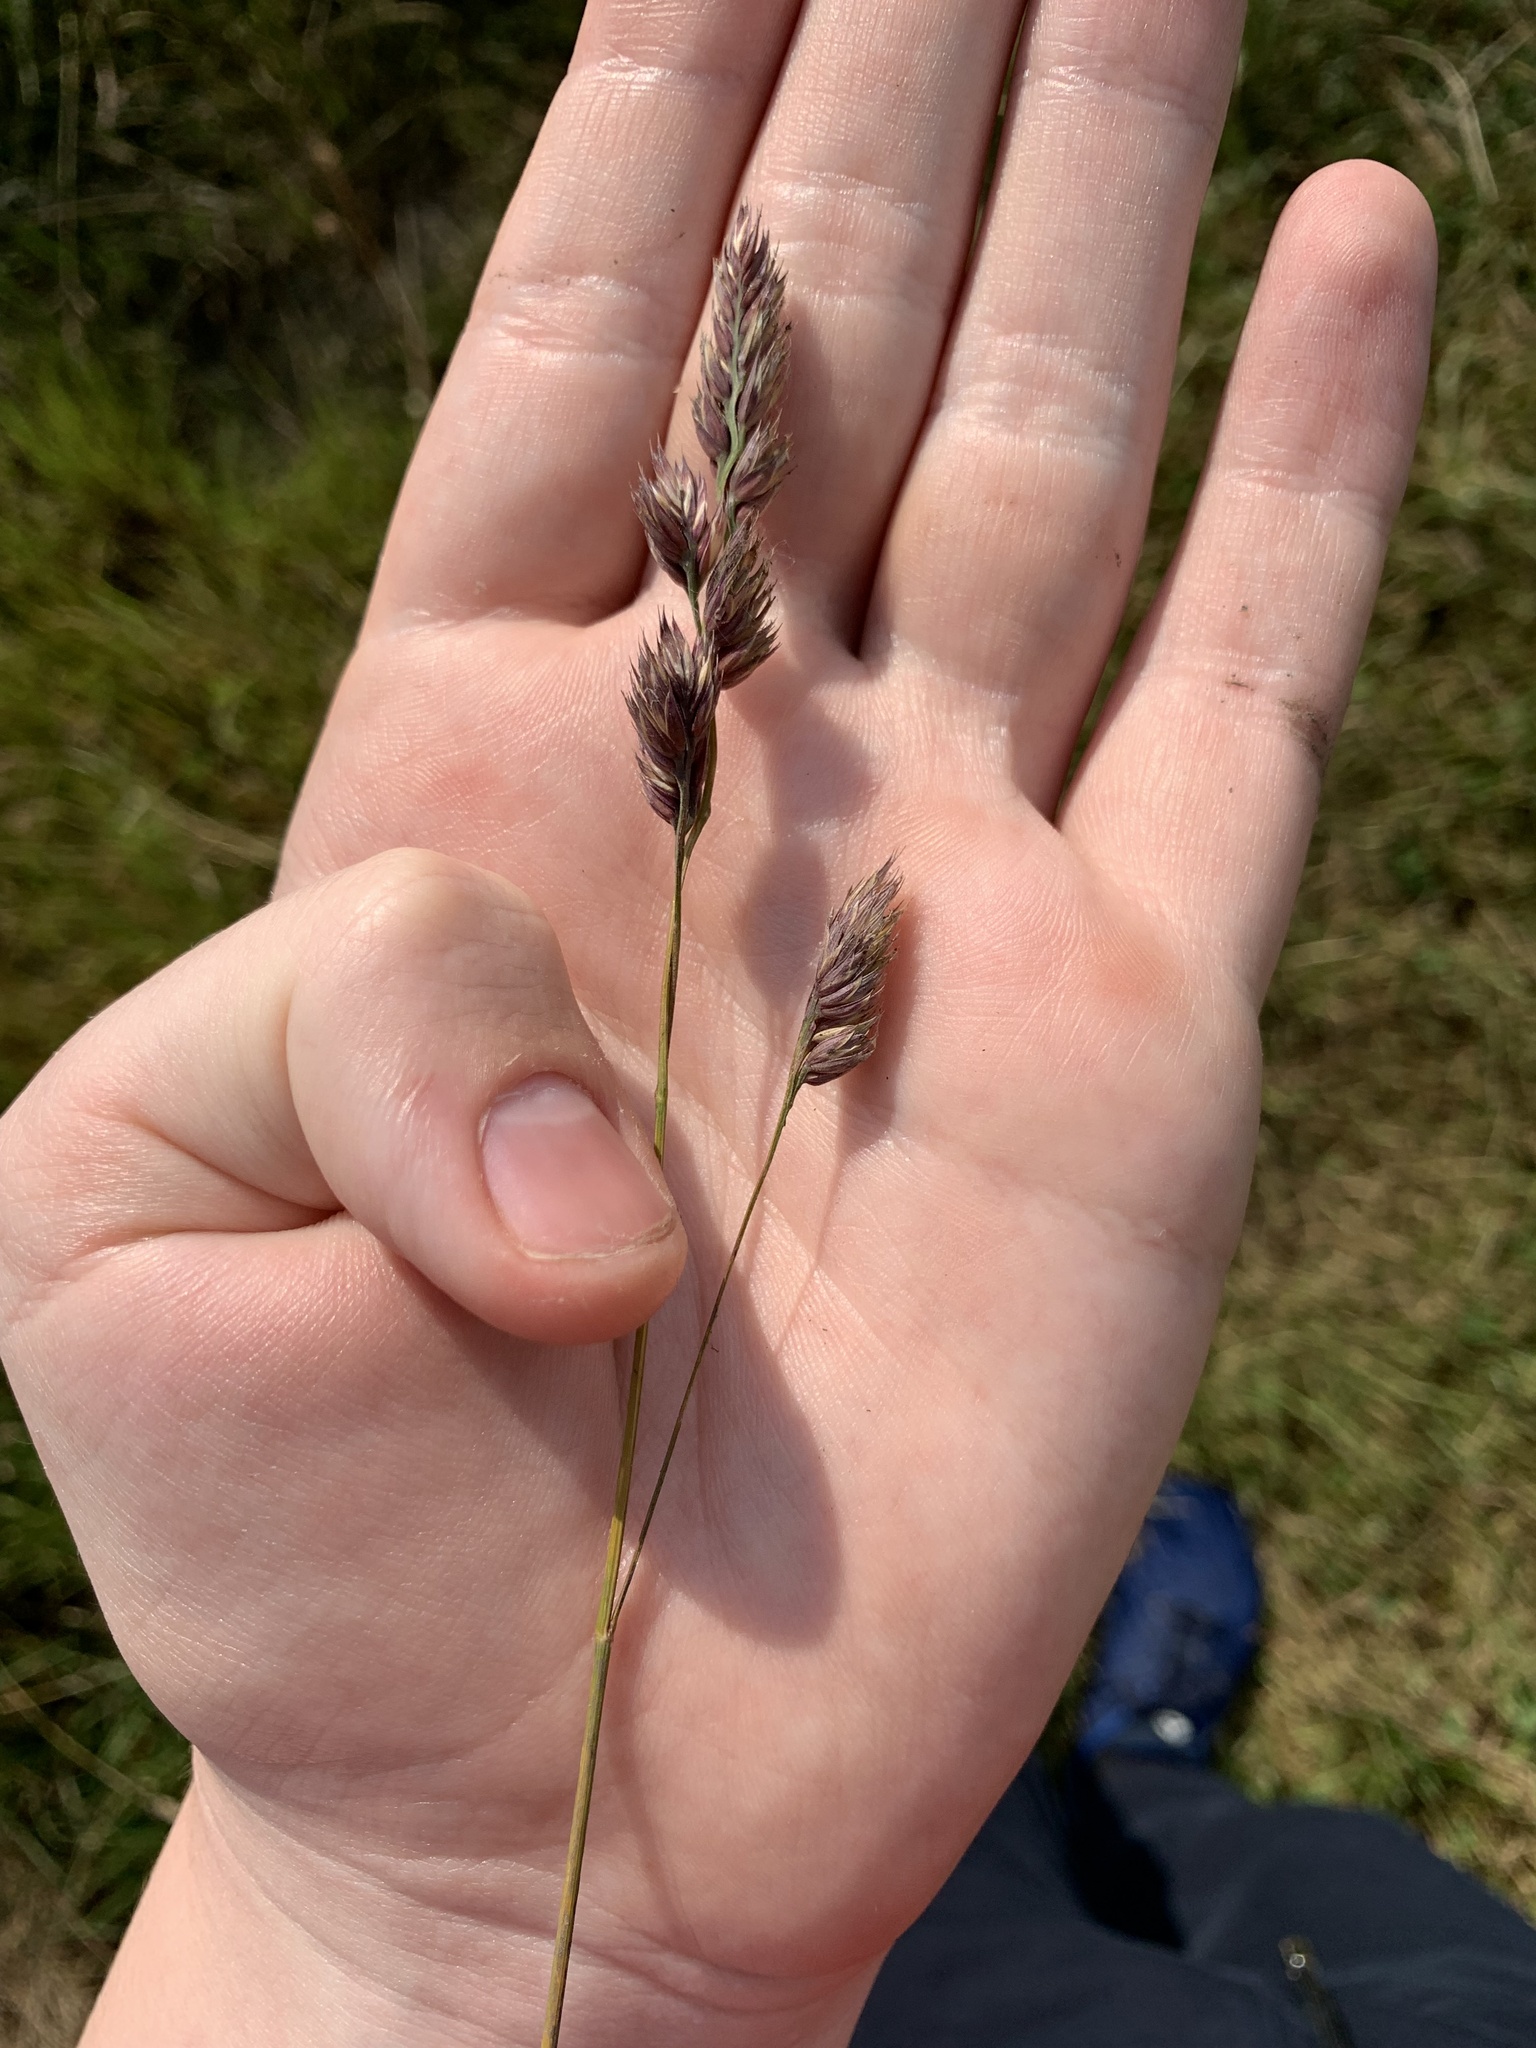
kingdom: Plantae
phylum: Tracheophyta
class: Liliopsida
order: Poales
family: Poaceae
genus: Dactylis
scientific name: Dactylis glomerata
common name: Orchardgrass
